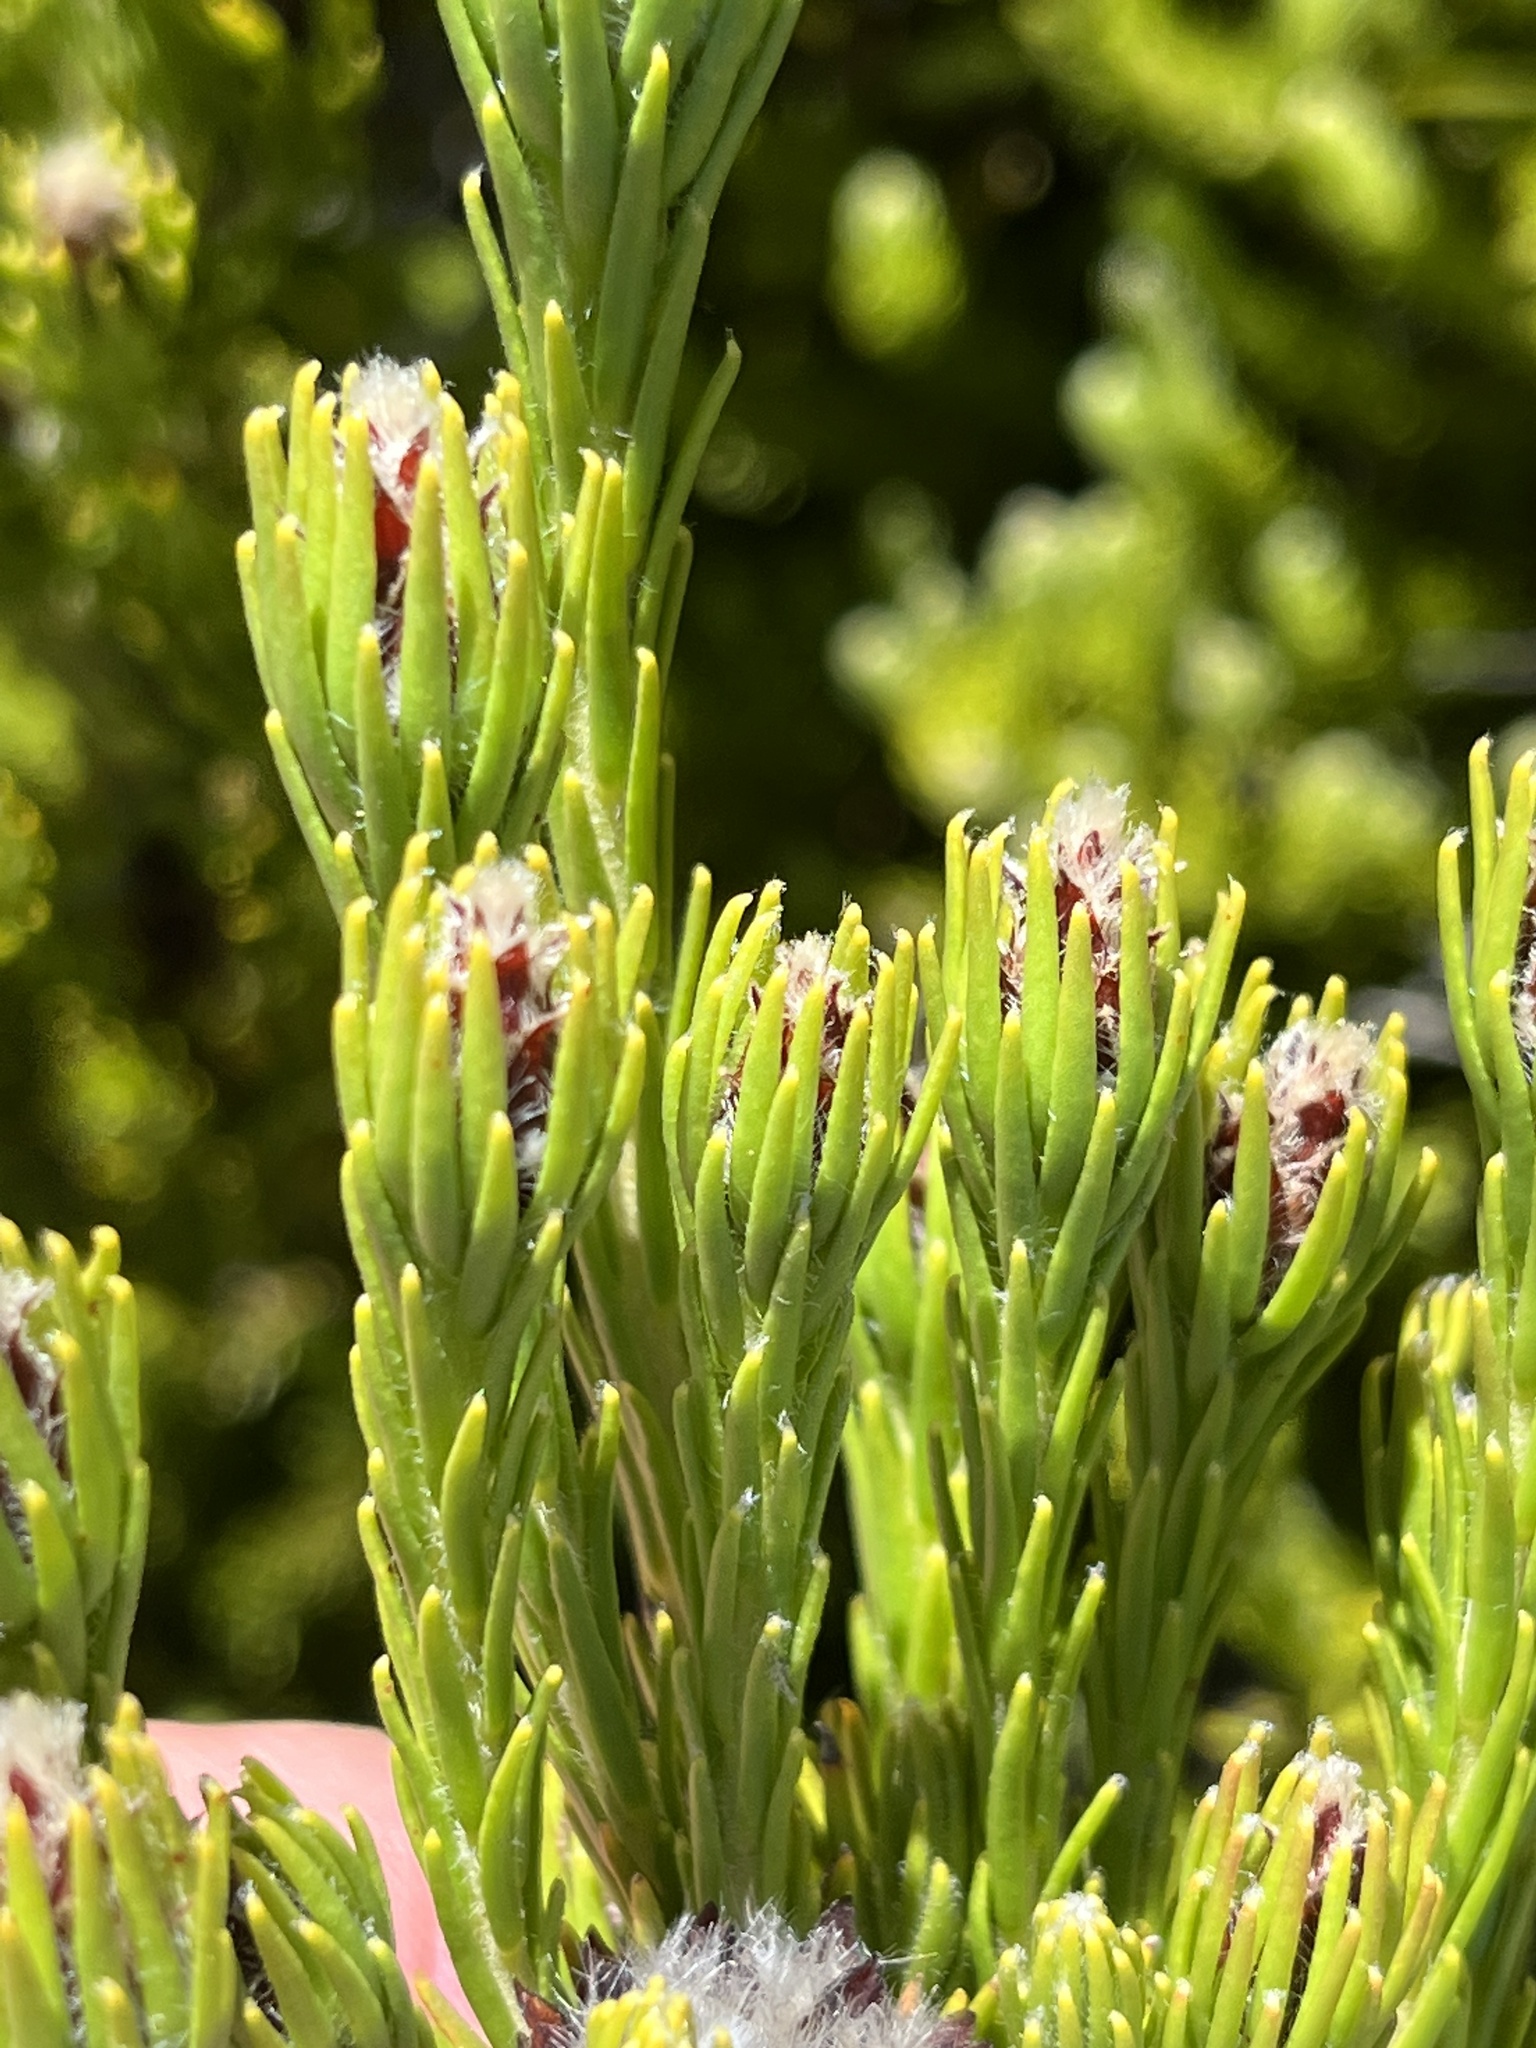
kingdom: Plantae
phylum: Tracheophyta
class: Magnoliopsida
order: Proteales
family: Proteaceae
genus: Leucadendron
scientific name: Leucadendron sorocephalodes
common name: Woolly conebush
